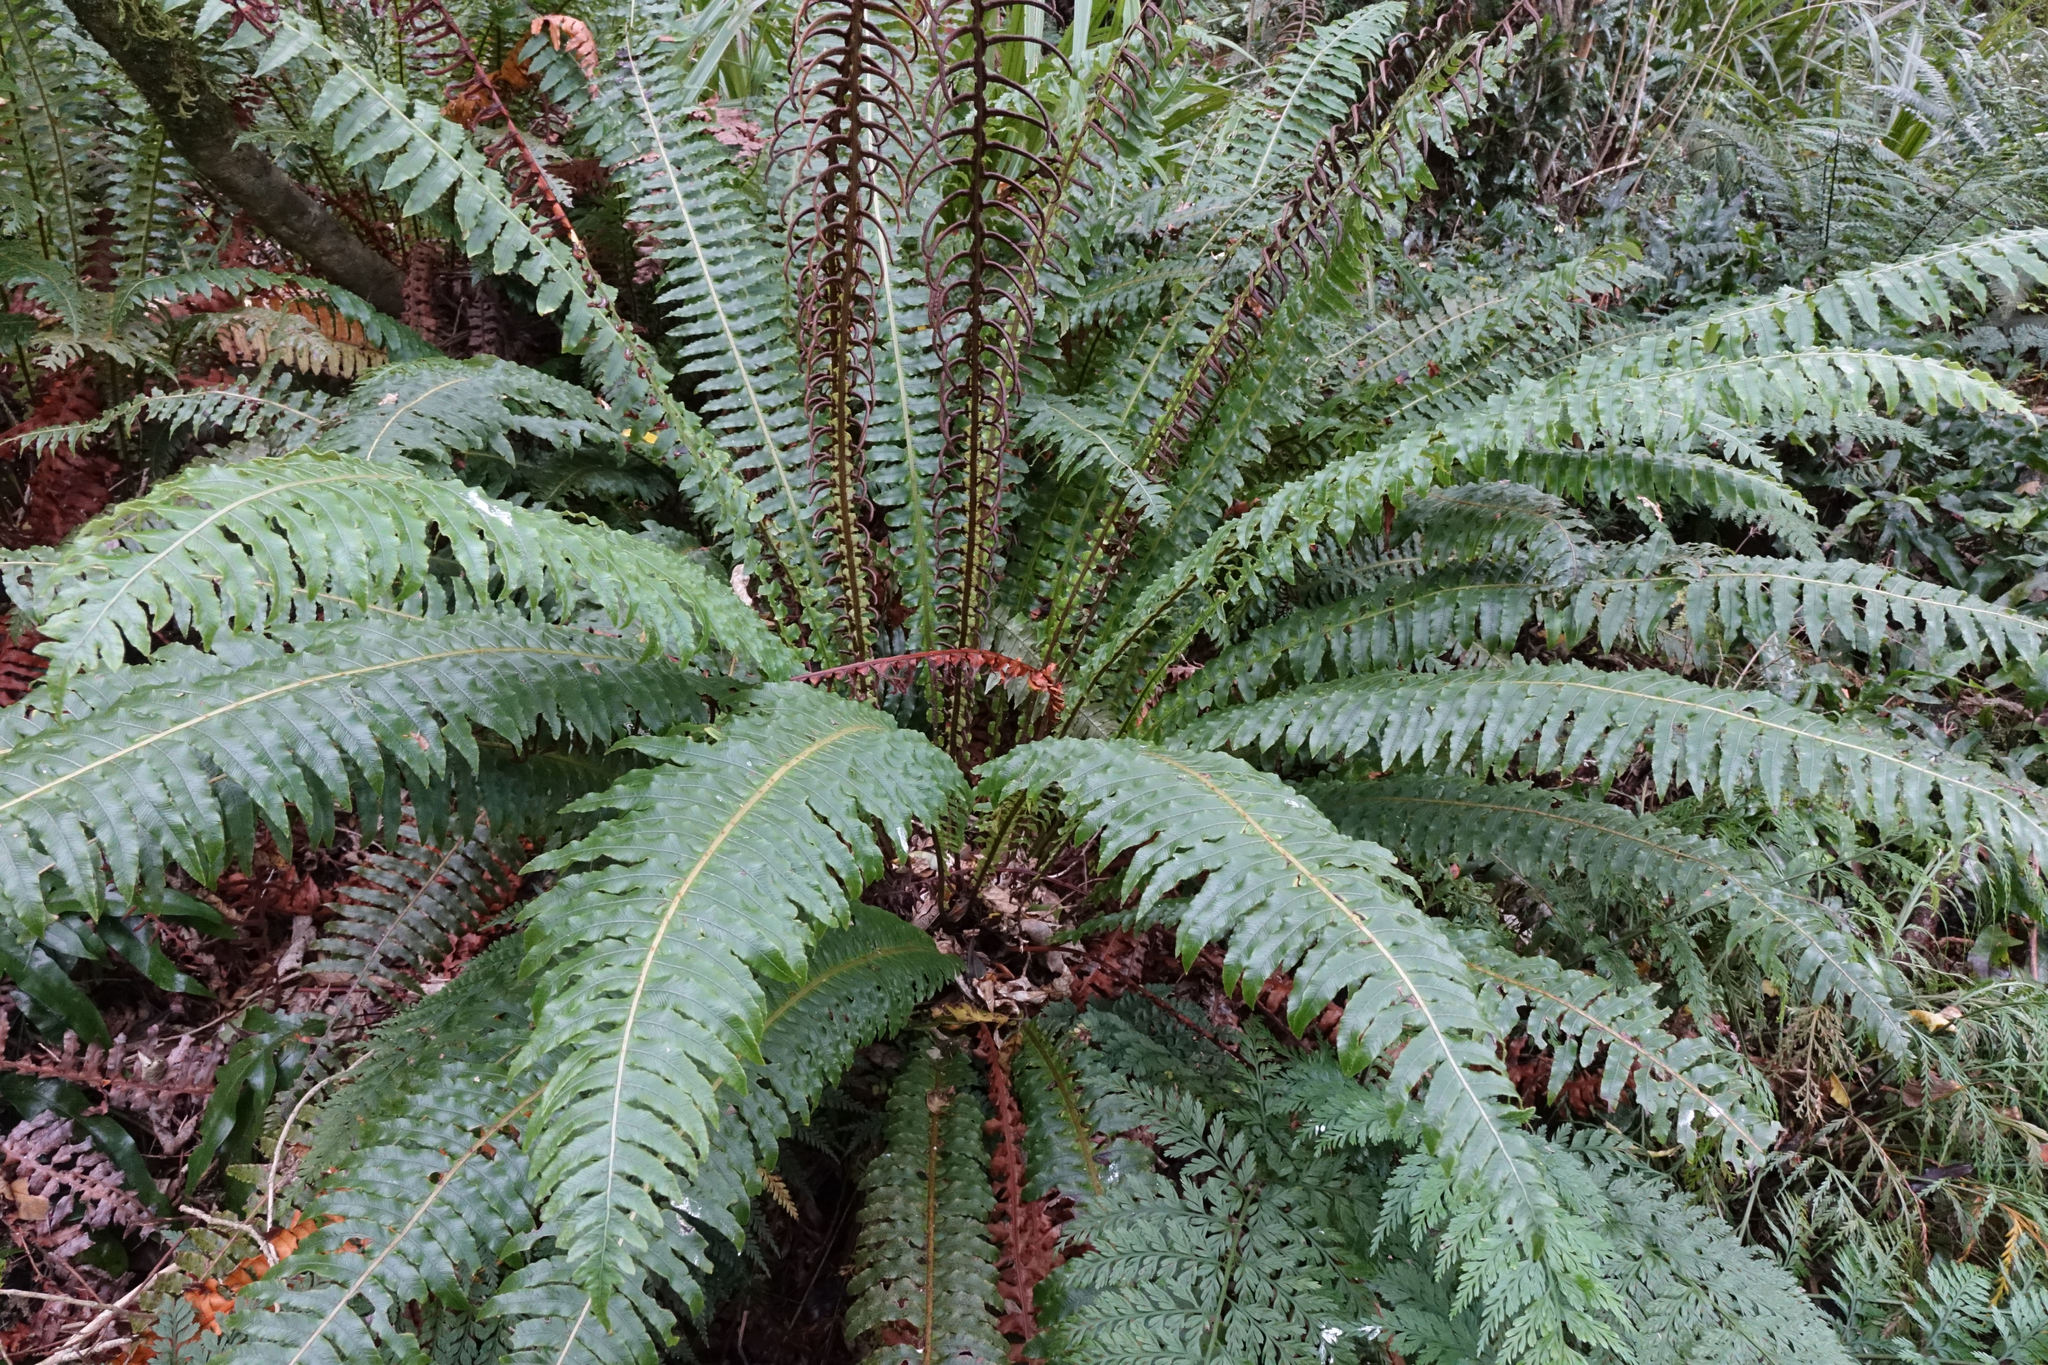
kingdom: Plantae
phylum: Tracheophyta
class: Polypodiopsida
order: Polypodiales
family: Blechnaceae
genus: Lomaria
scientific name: Lomaria discolor
